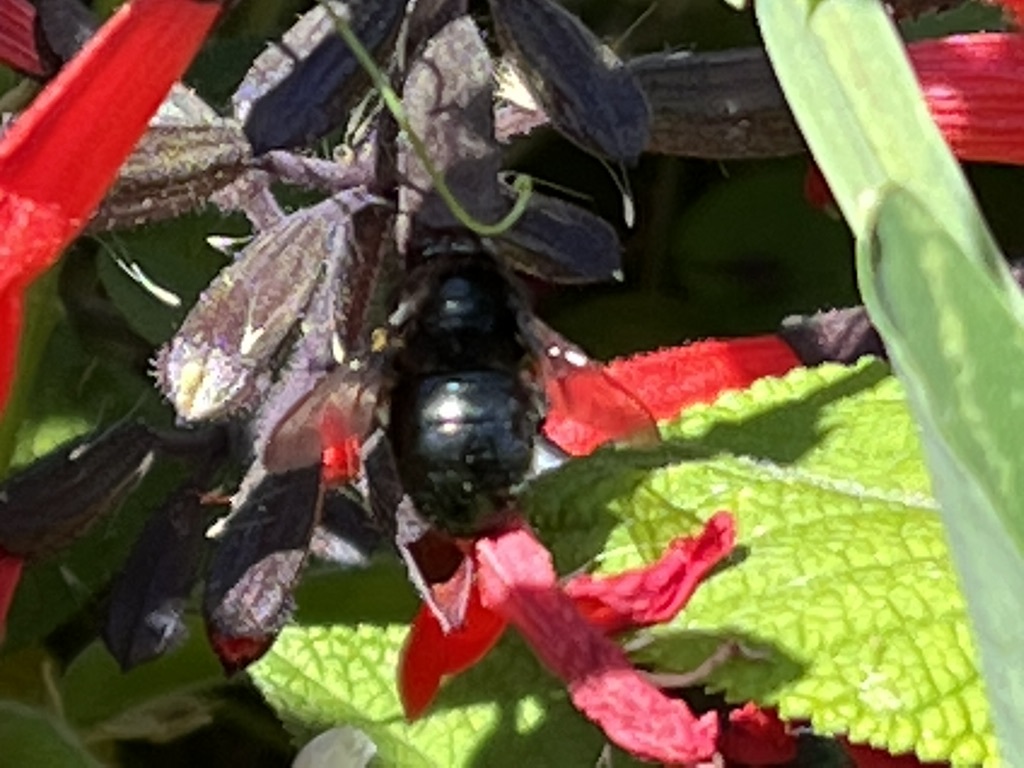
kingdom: Animalia
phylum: Arthropoda
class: Insecta
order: Hymenoptera
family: Apidae
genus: Xylocopa
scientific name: Xylocopa tabaniformis
